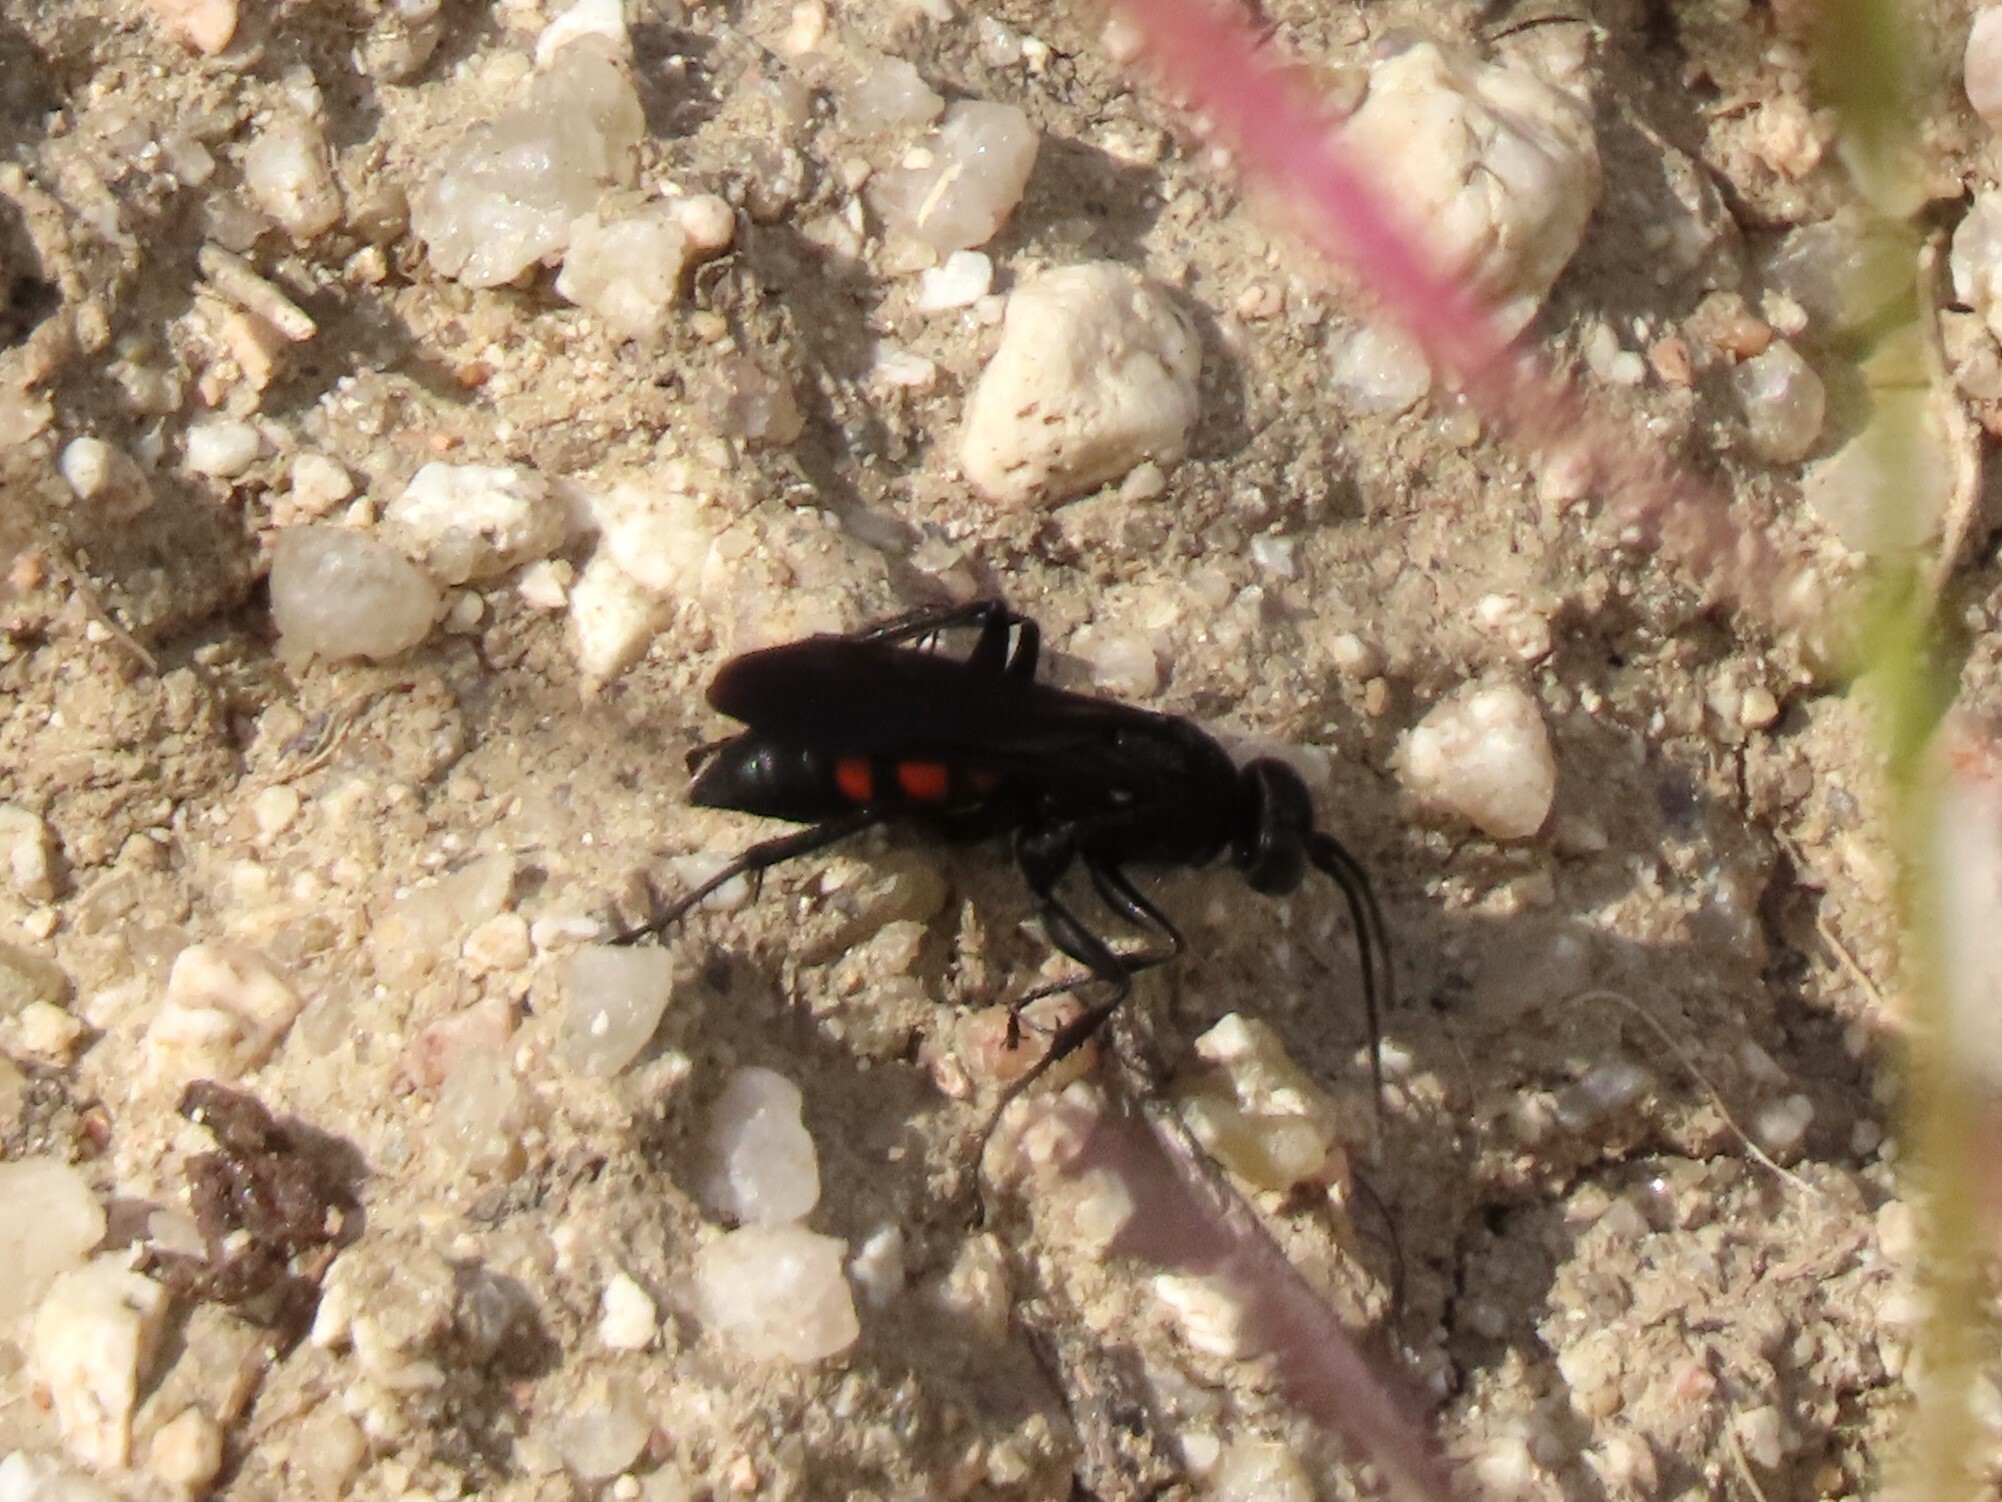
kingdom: Animalia
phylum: Arthropoda
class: Insecta
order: Hymenoptera
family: Pompilidae
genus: Anoplius
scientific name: Anoplius viaticus
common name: Black banded spider wasp
